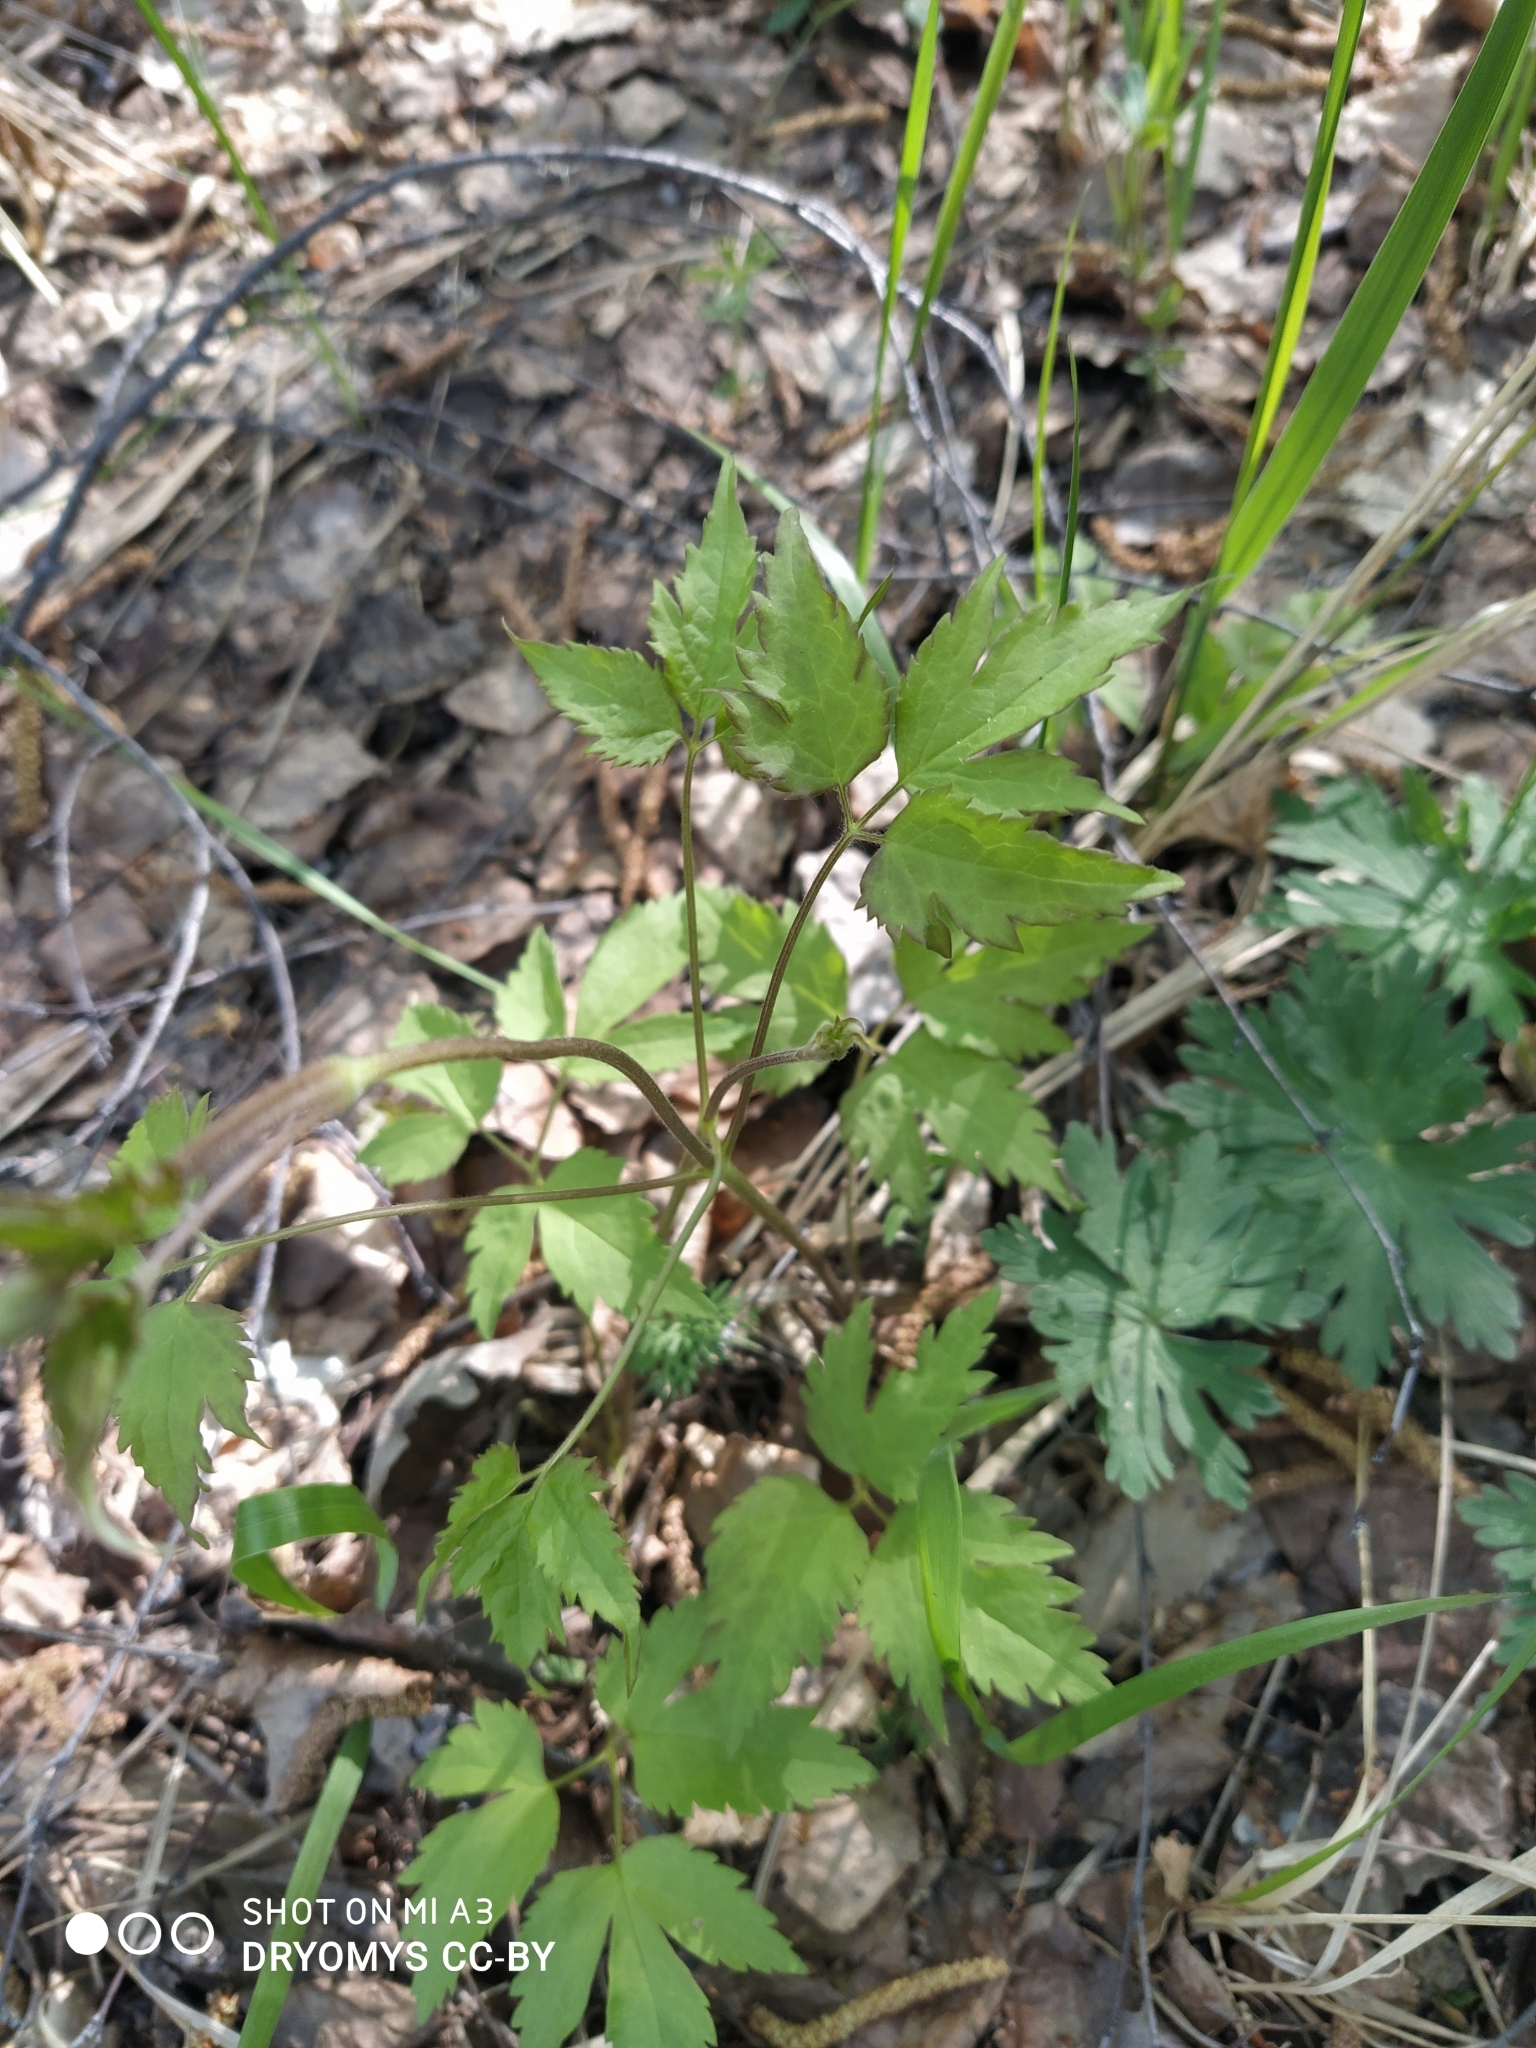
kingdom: Plantae
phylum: Tracheophyta
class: Magnoliopsida
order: Ranunculales
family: Ranunculaceae
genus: Clematis
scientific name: Clematis sibirica
